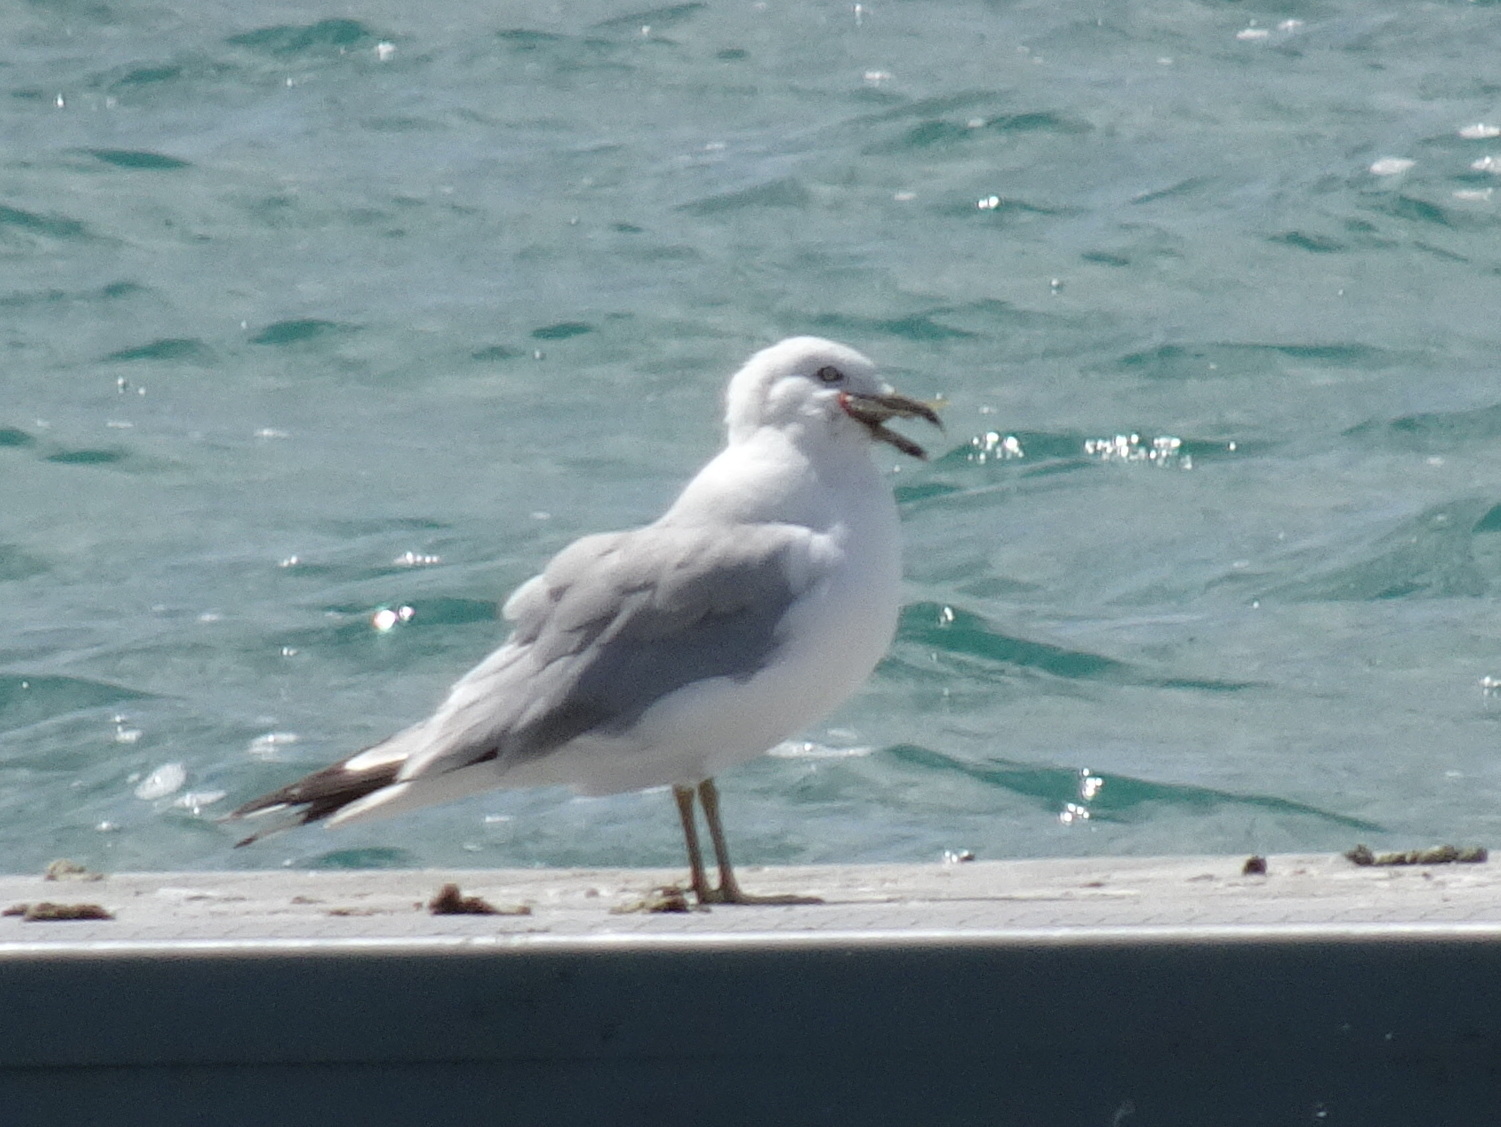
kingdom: Animalia
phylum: Chordata
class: Aves
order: Charadriiformes
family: Laridae
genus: Larus
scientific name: Larus delawarensis
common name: Ring-billed gull
